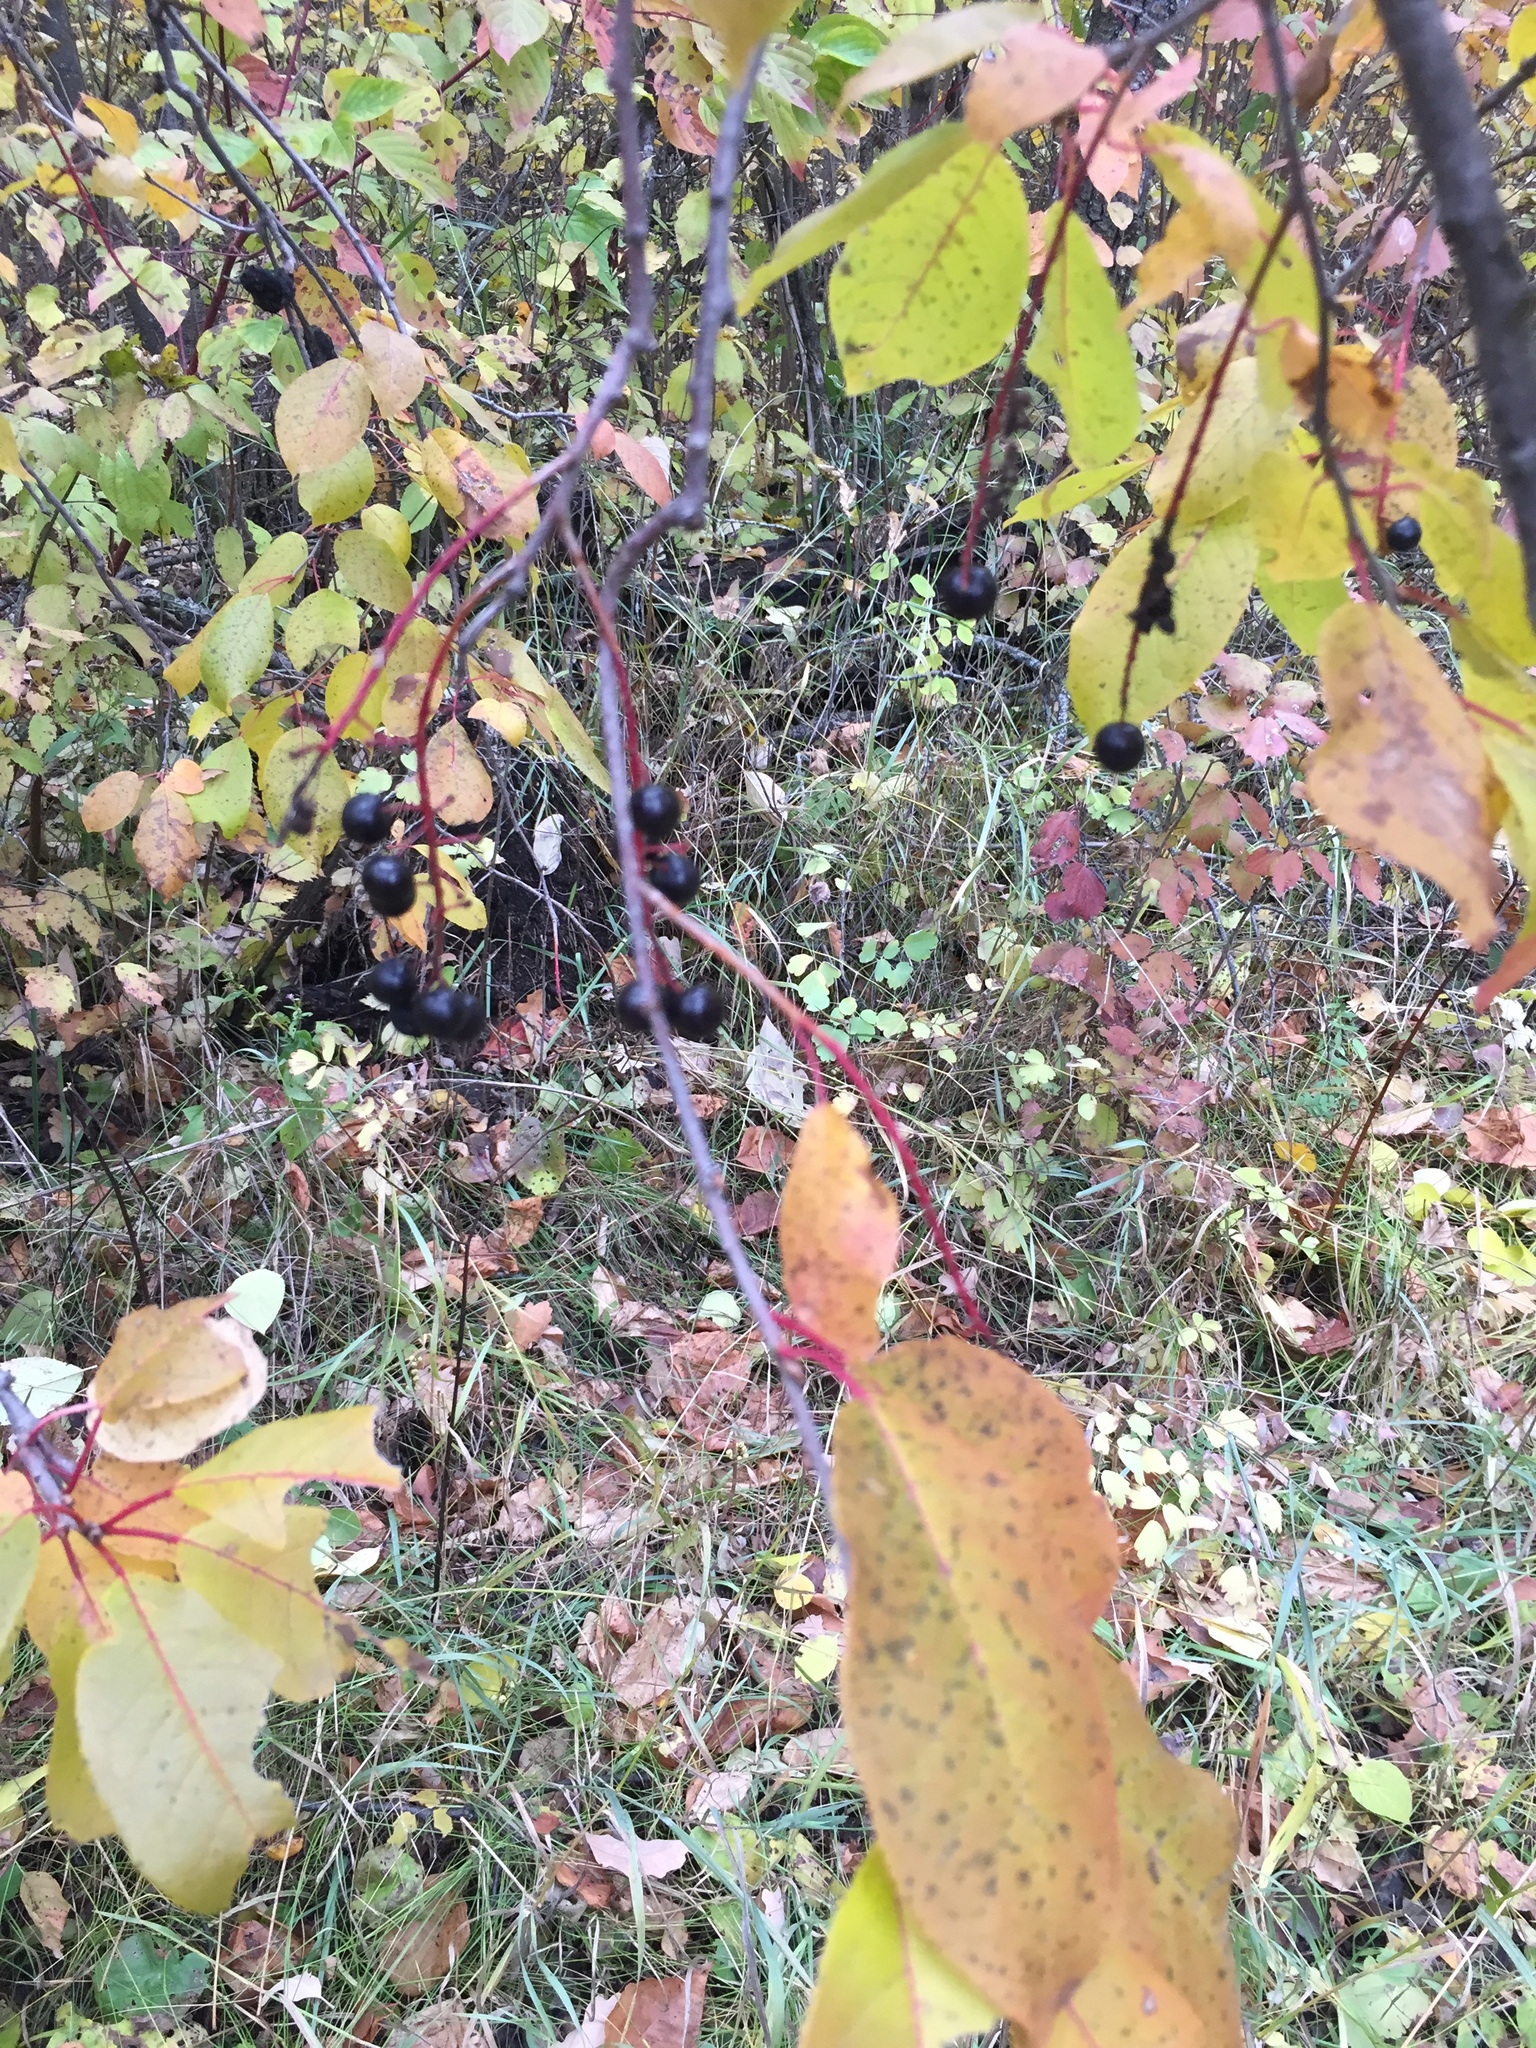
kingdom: Plantae
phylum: Tracheophyta
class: Magnoliopsida
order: Rosales
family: Rosaceae
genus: Prunus
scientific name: Prunus virginiana
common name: Chokecherry
